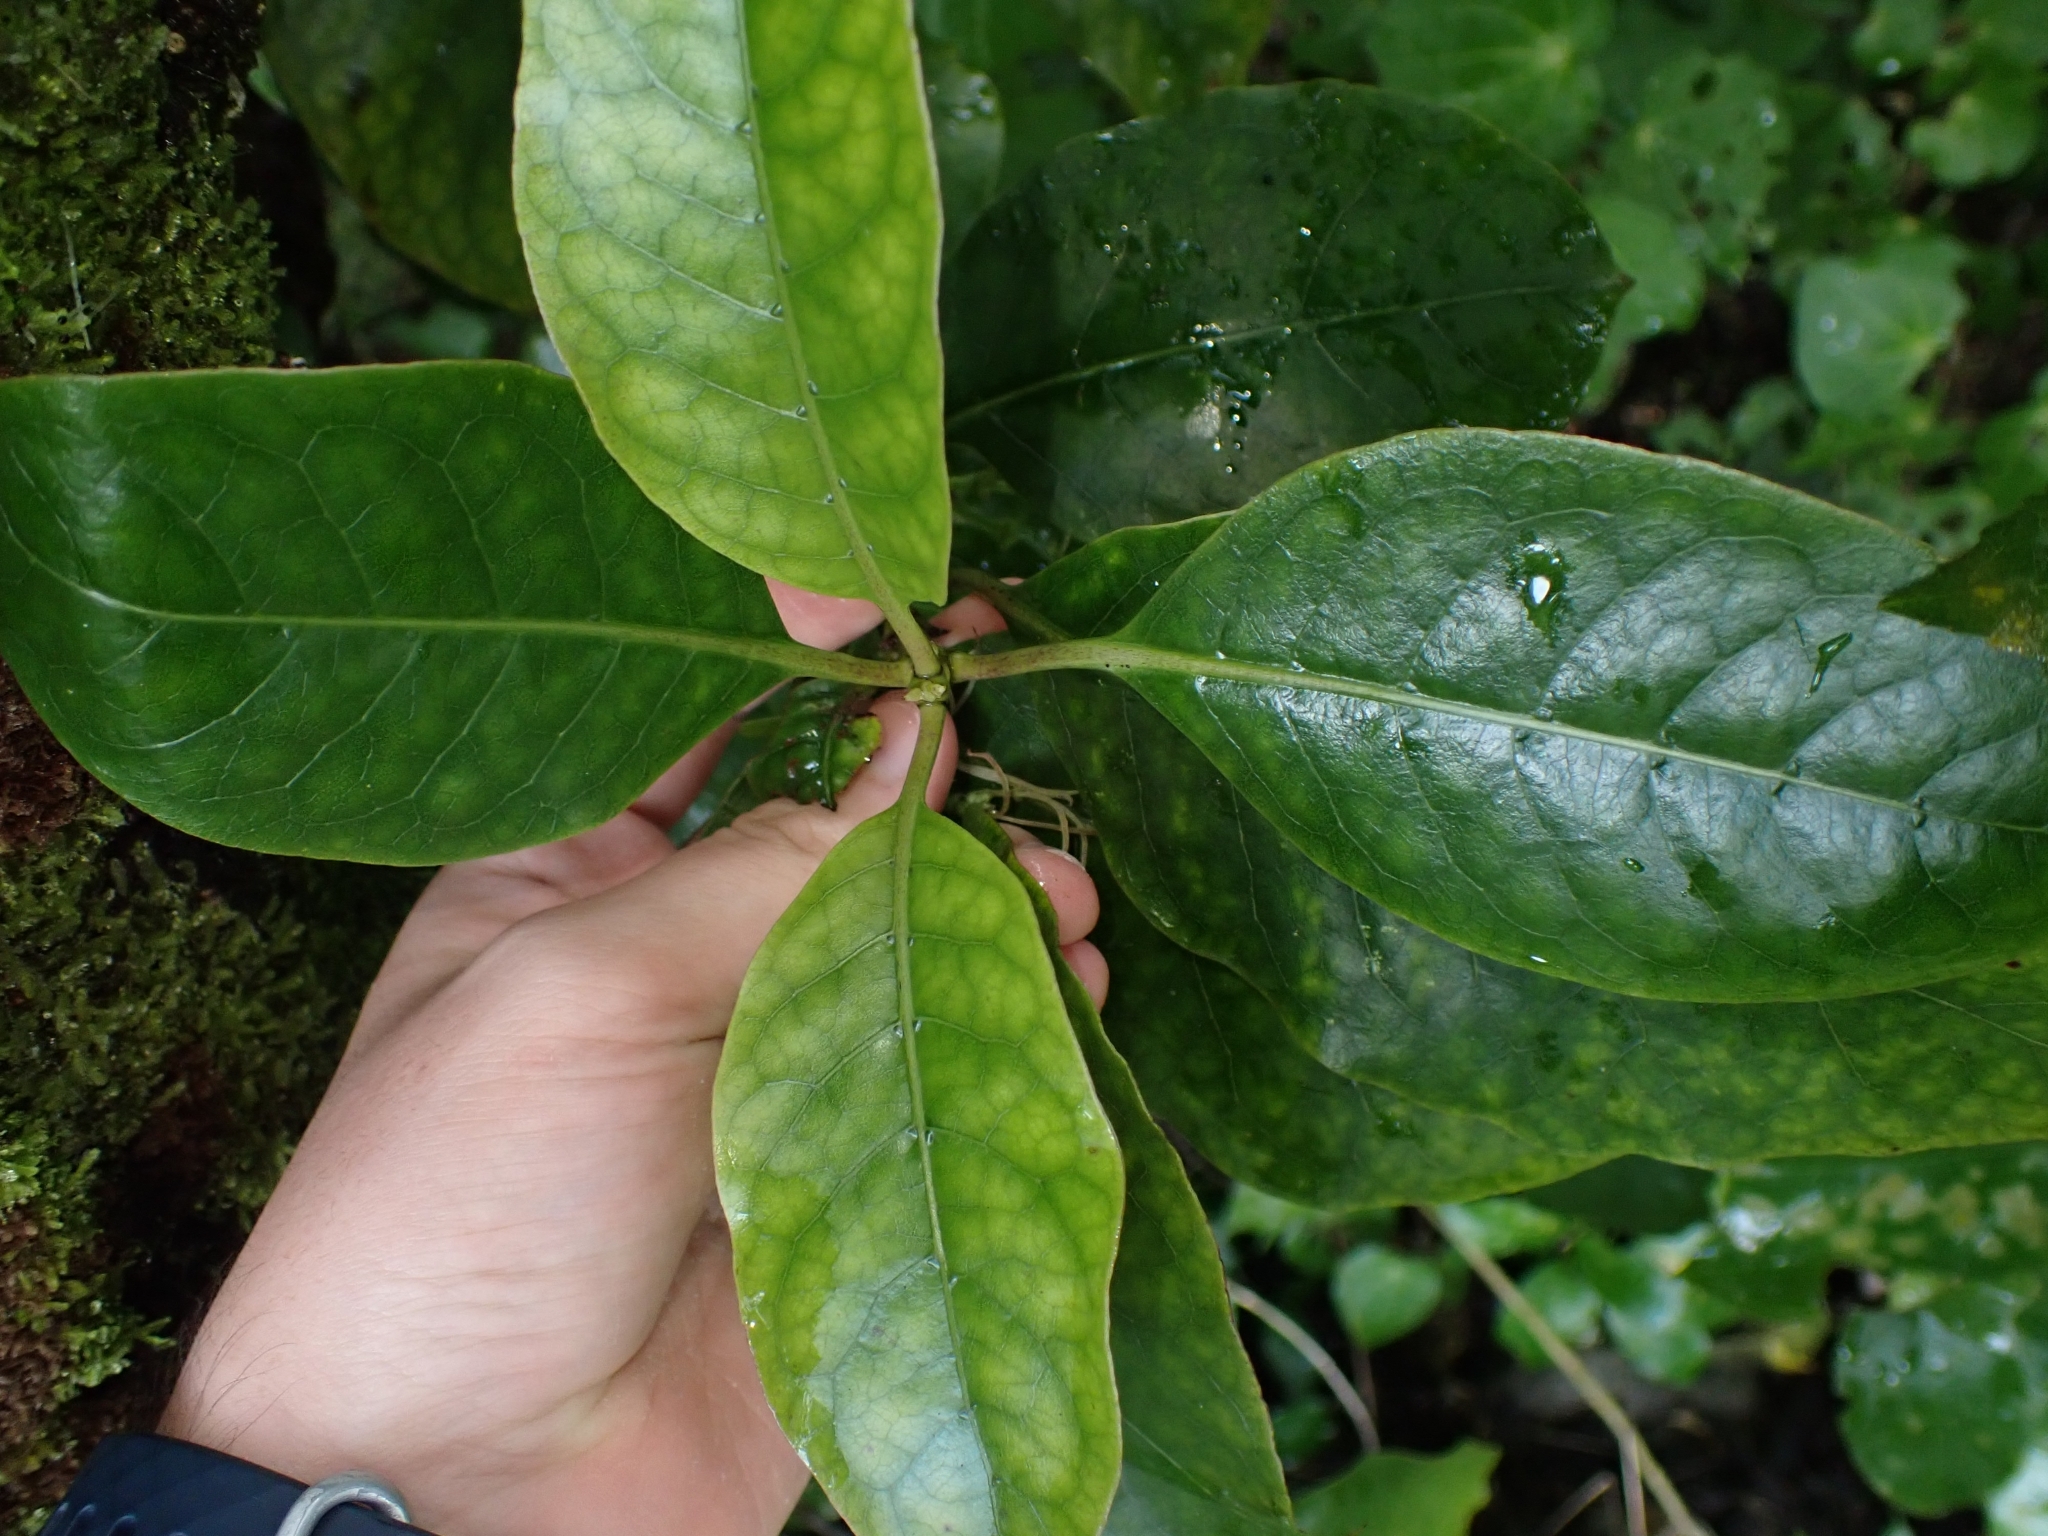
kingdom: Plantae
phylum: Tracheophyta
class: Magnoliopsida
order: Gentianales
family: Rubiaceae
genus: Coprosma
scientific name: Coprosma autumnalis
